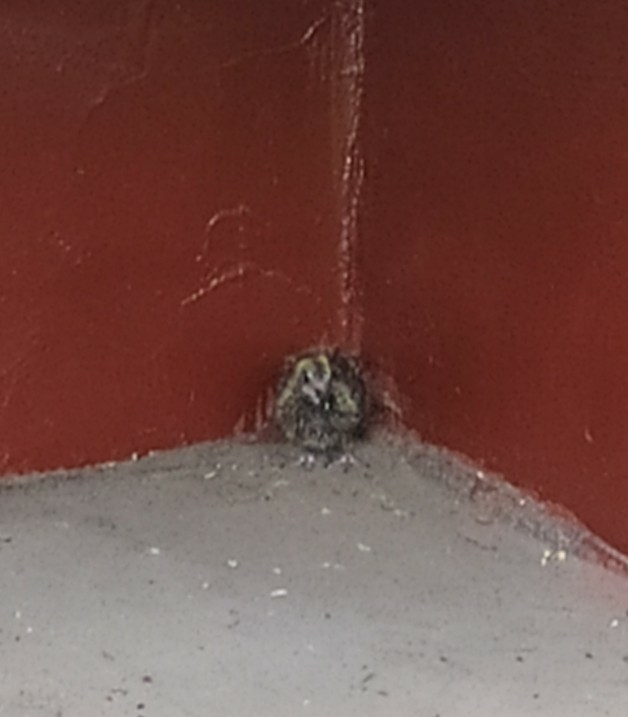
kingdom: Animalia
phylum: Chordata
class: Aves
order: Columbiformes
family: Columbidae
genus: Columba
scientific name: Columba livia
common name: Rock pigeon
